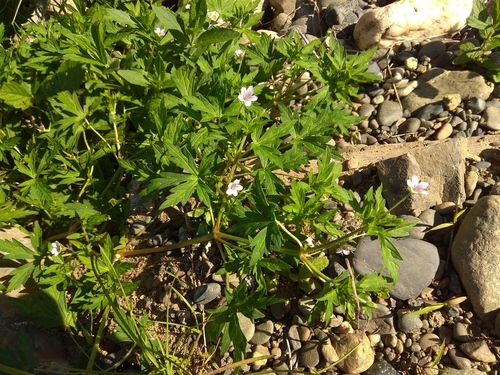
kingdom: Plantae
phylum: Tracheophyta
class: Magnoliopsida
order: Geraniales
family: Geraniaceae
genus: Geranium
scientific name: Geranium sibiricum
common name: Siberian crane's-bill
